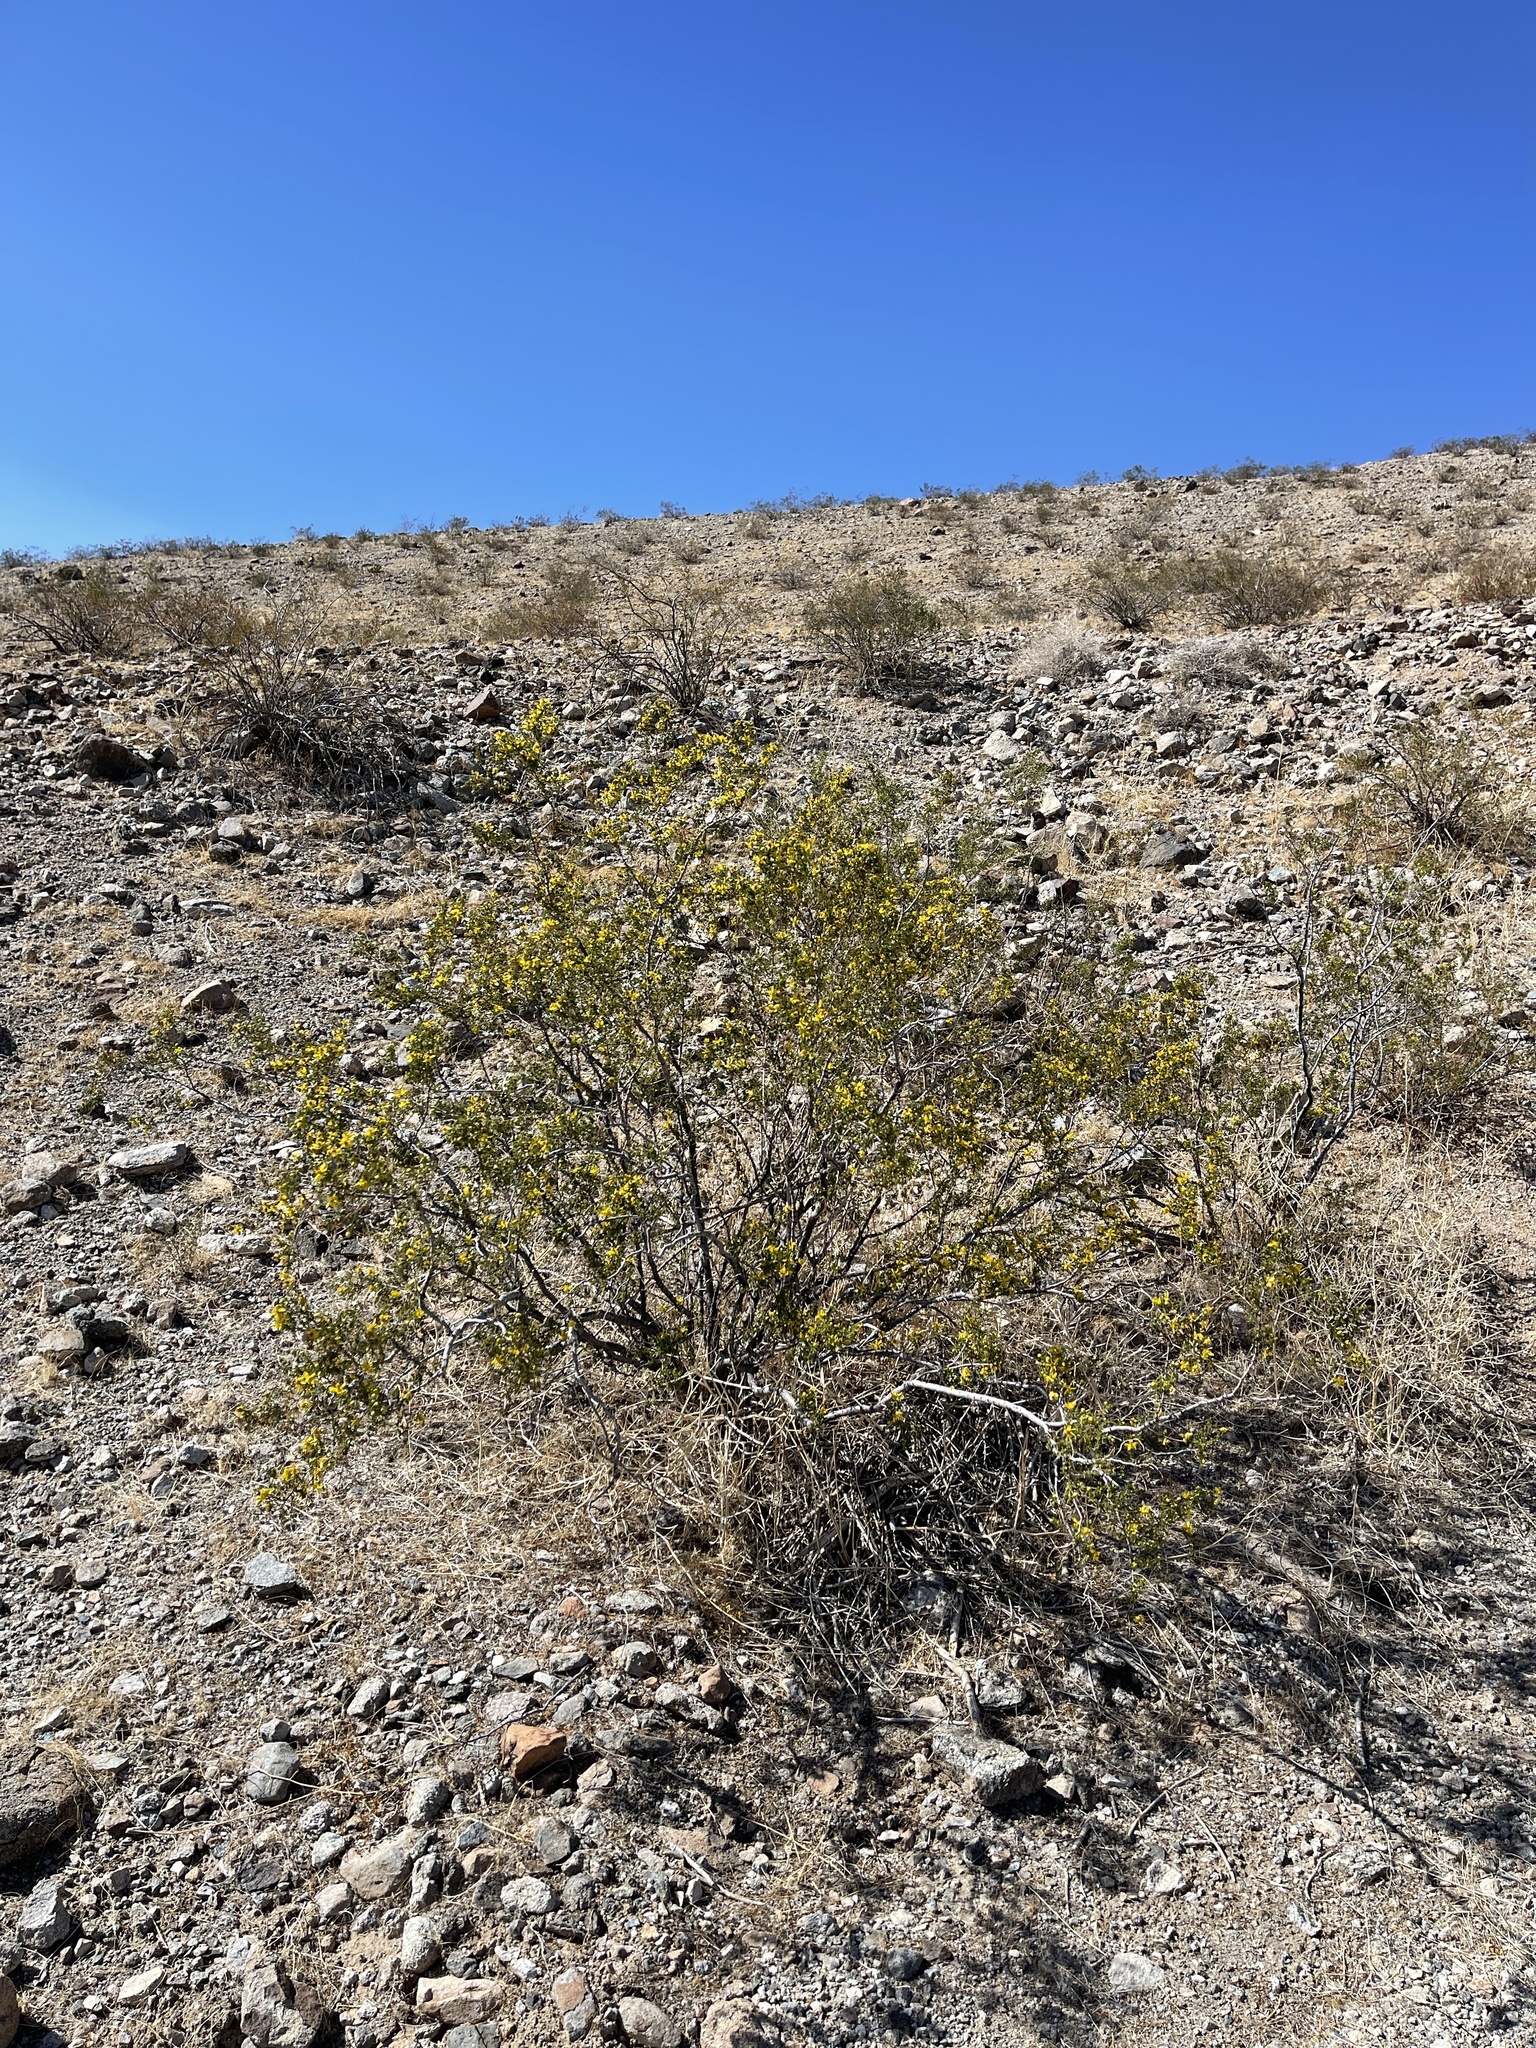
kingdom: Plantae
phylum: Tracheophyta
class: Magnoliopsida
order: Zygophyllales
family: Zygophyllaceae
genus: Larrea
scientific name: Larrea tridentata
